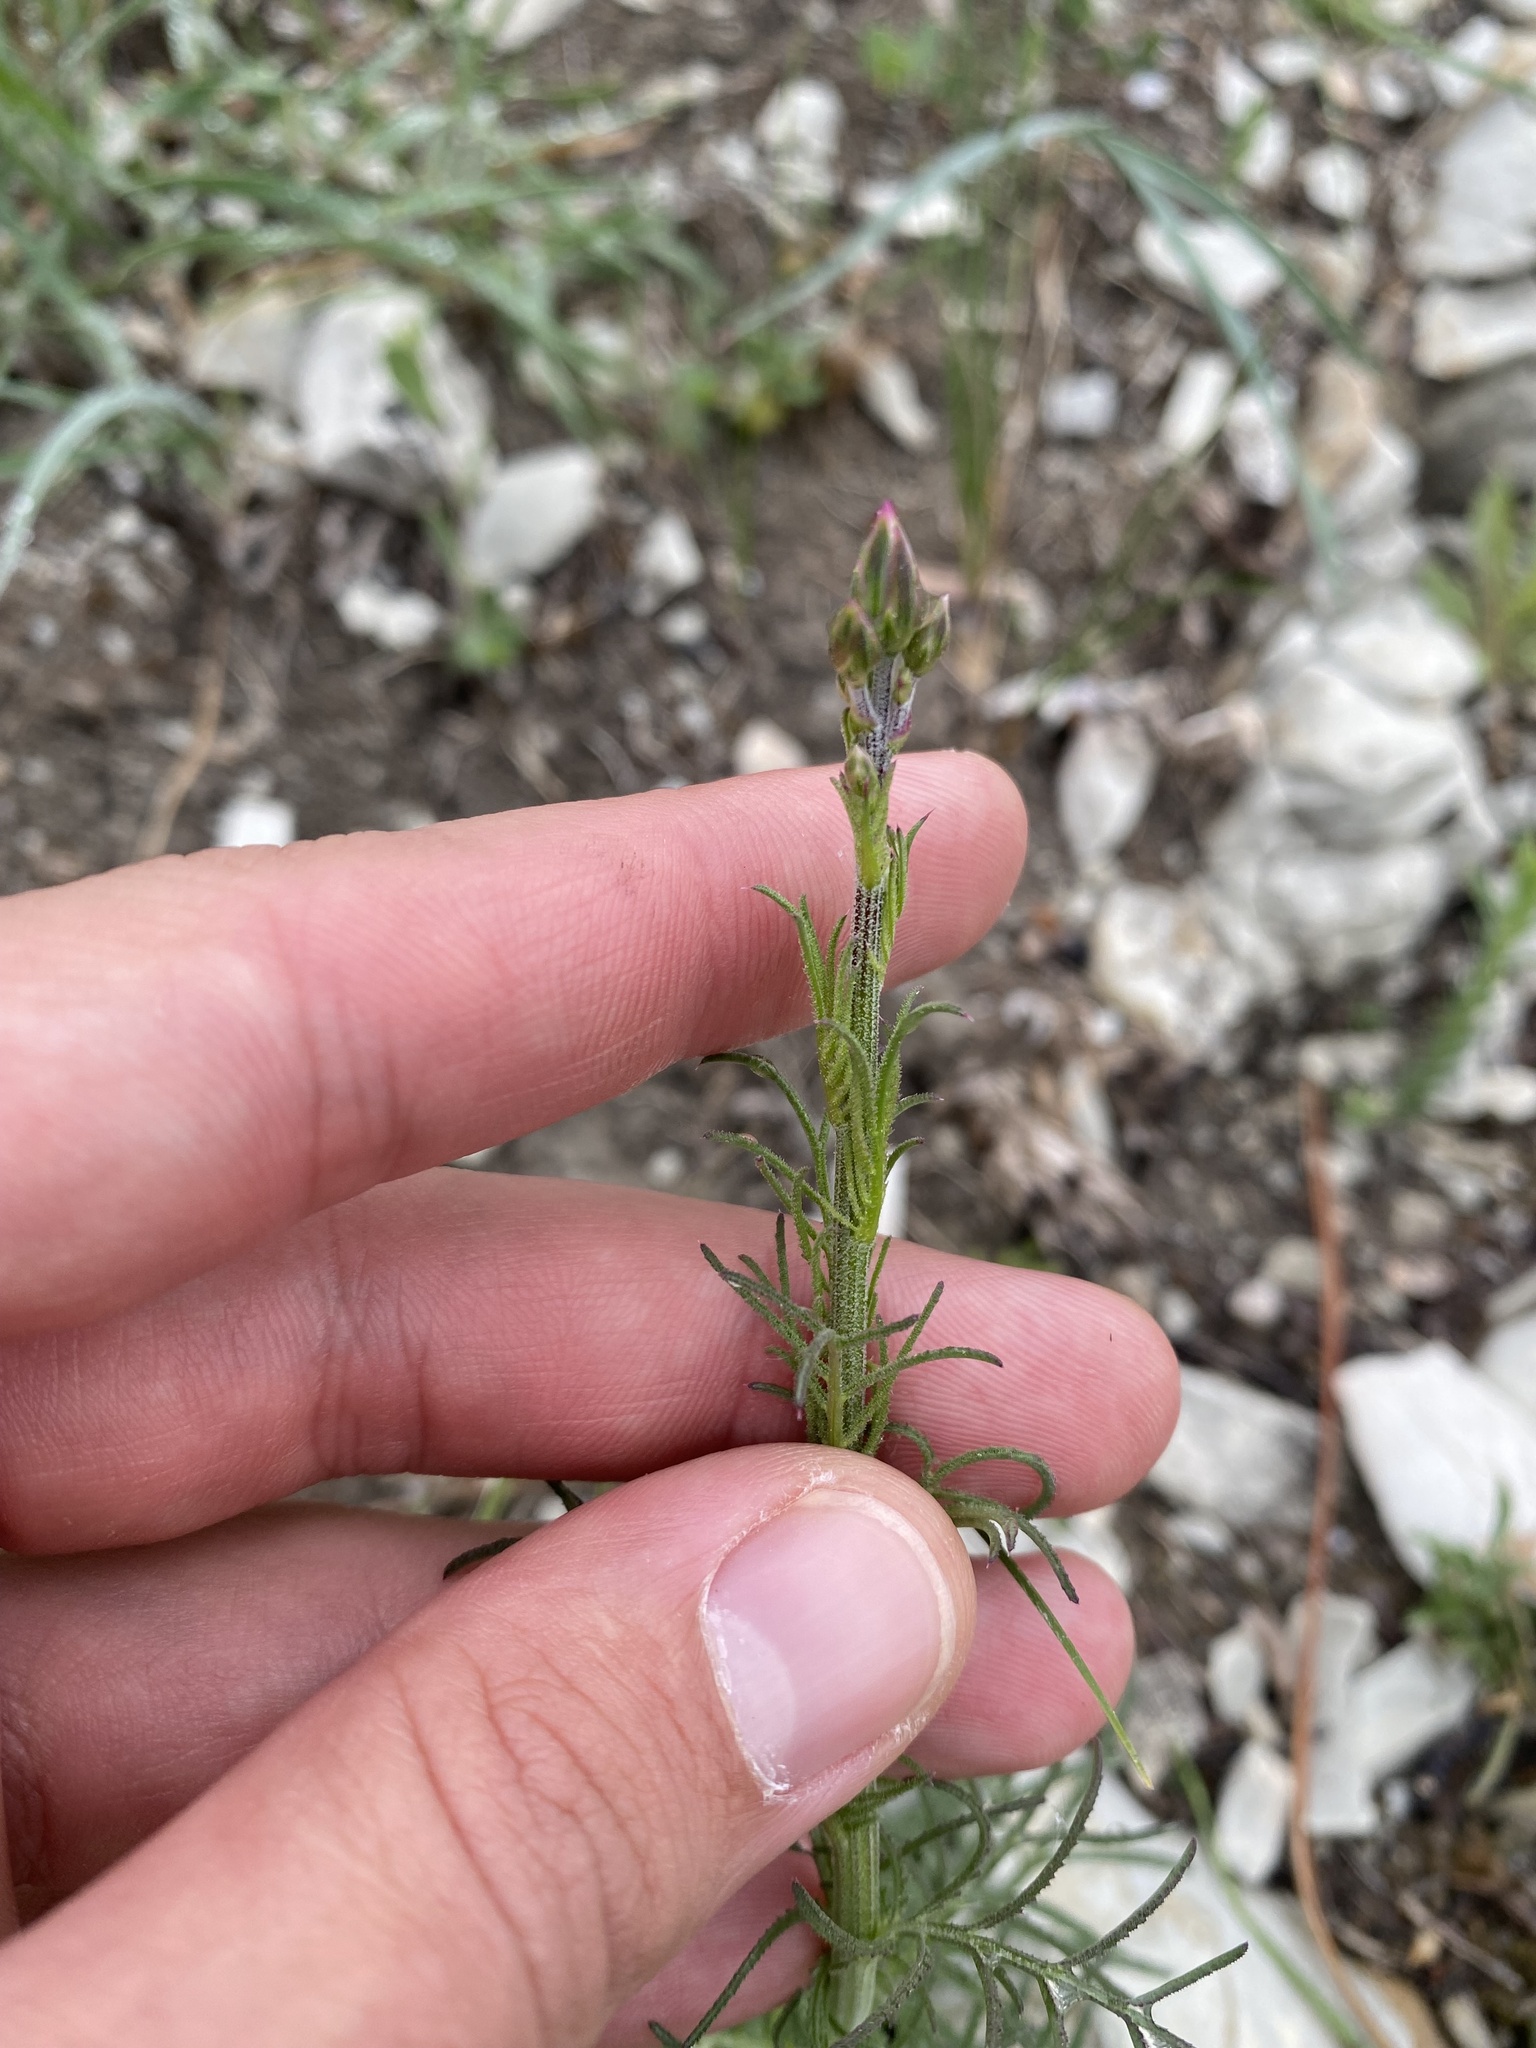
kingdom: Plantae
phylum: Tracheophyta
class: Magnoliopsida
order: Asterales
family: Asteraceae
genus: Crupina
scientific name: Crupina vulgaris
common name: Common crupina
